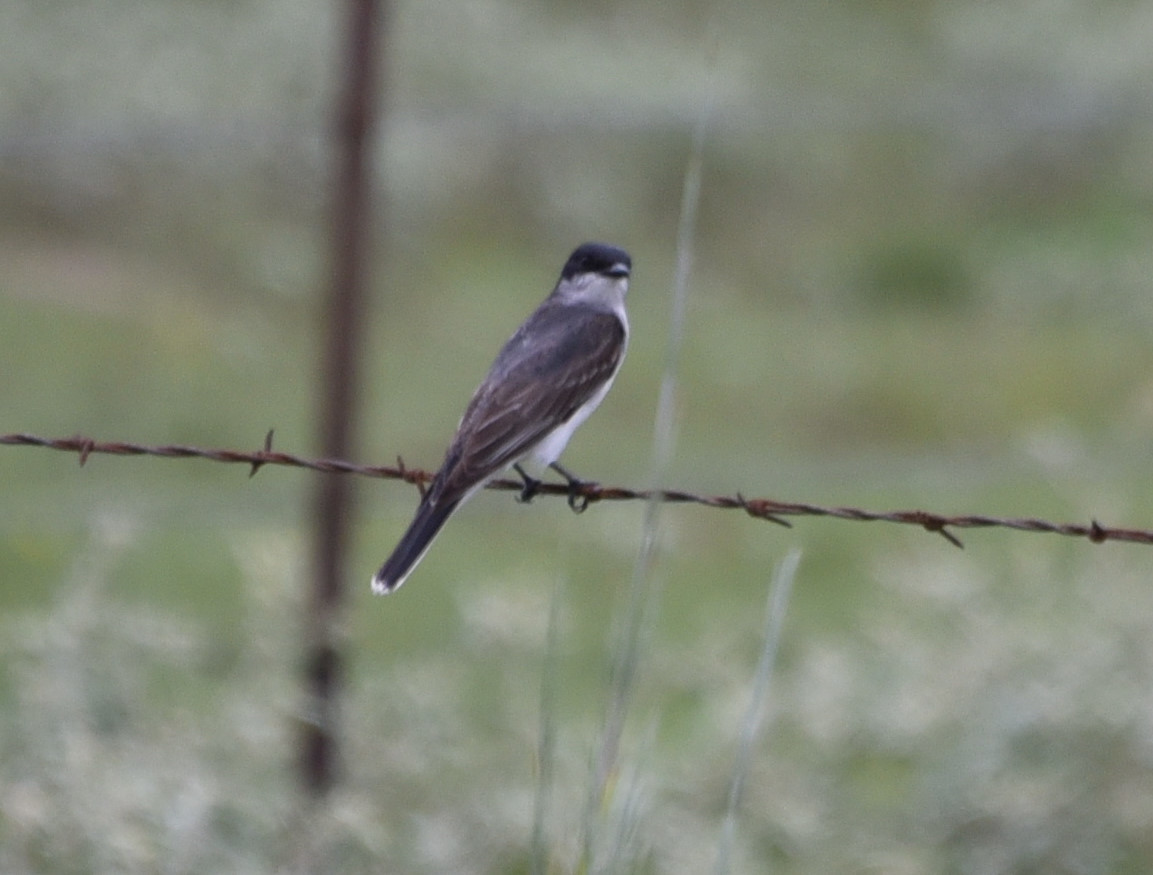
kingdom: Animalia
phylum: Chordata
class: Aves
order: Passeriformes
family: Tyrannidae
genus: Tyrannus
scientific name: Tyrannus tyrannus
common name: Eastern kingbird
